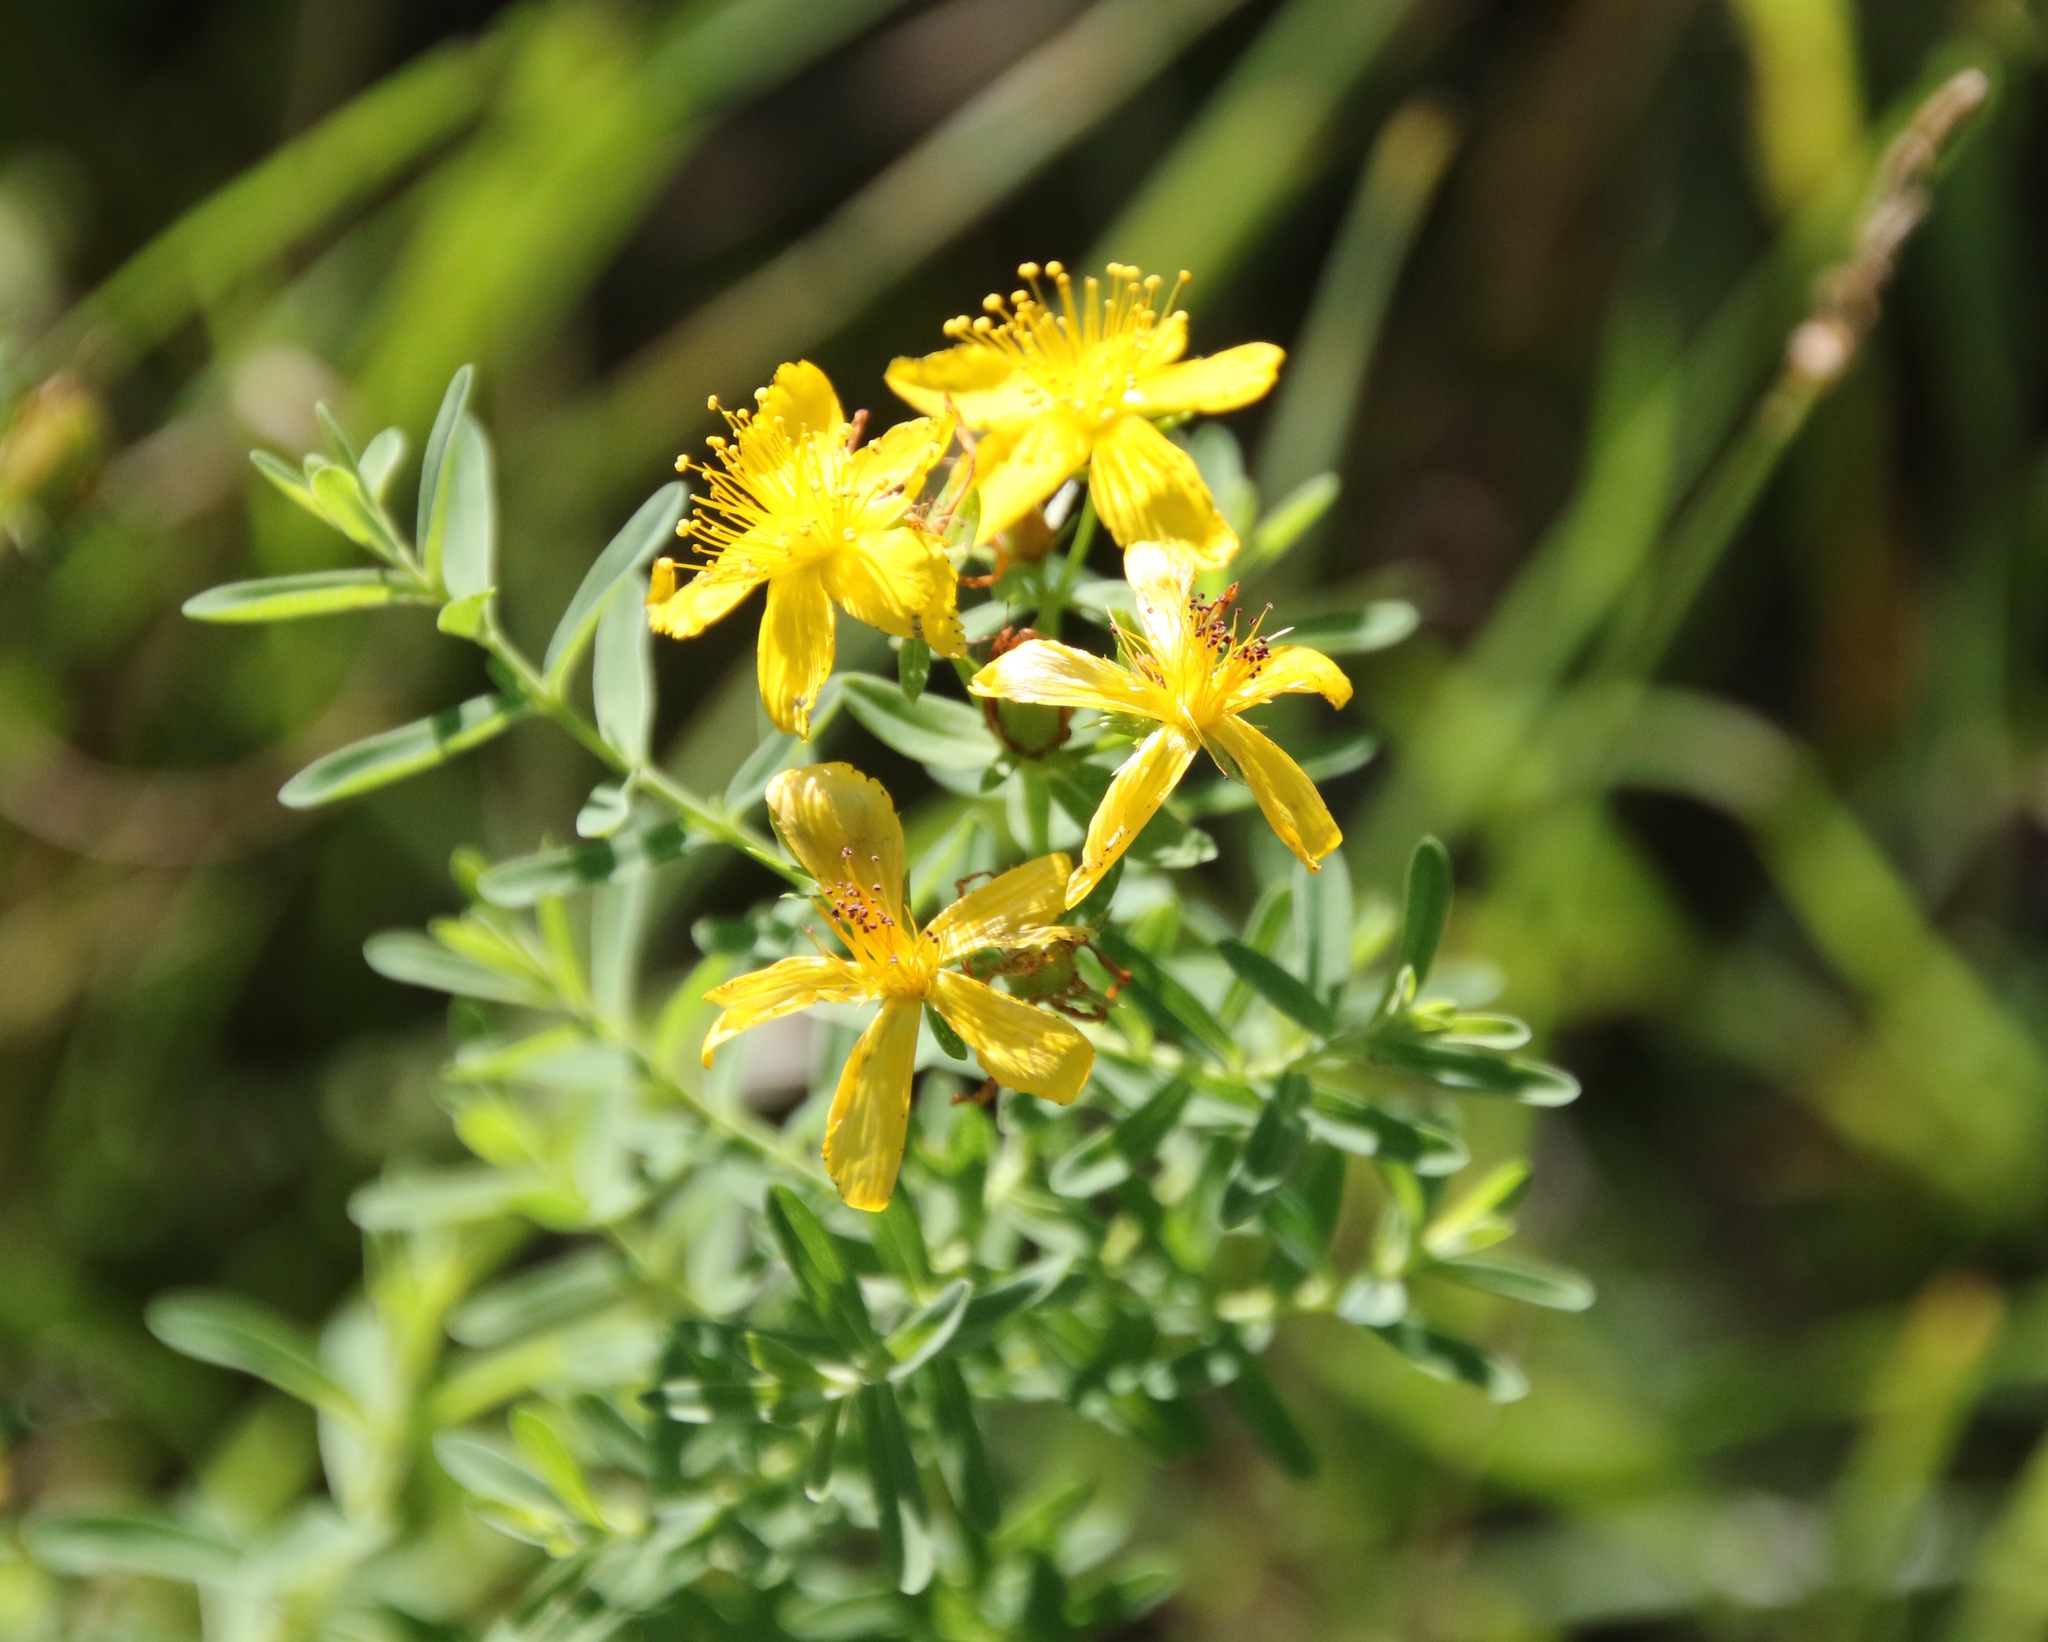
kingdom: Plantae
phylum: Tracheophyta
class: Magnoliopsida
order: Malpighiales
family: Hypericaceae
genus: Hypericum
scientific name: Hypericum perforatum
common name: Common st. johnswort
